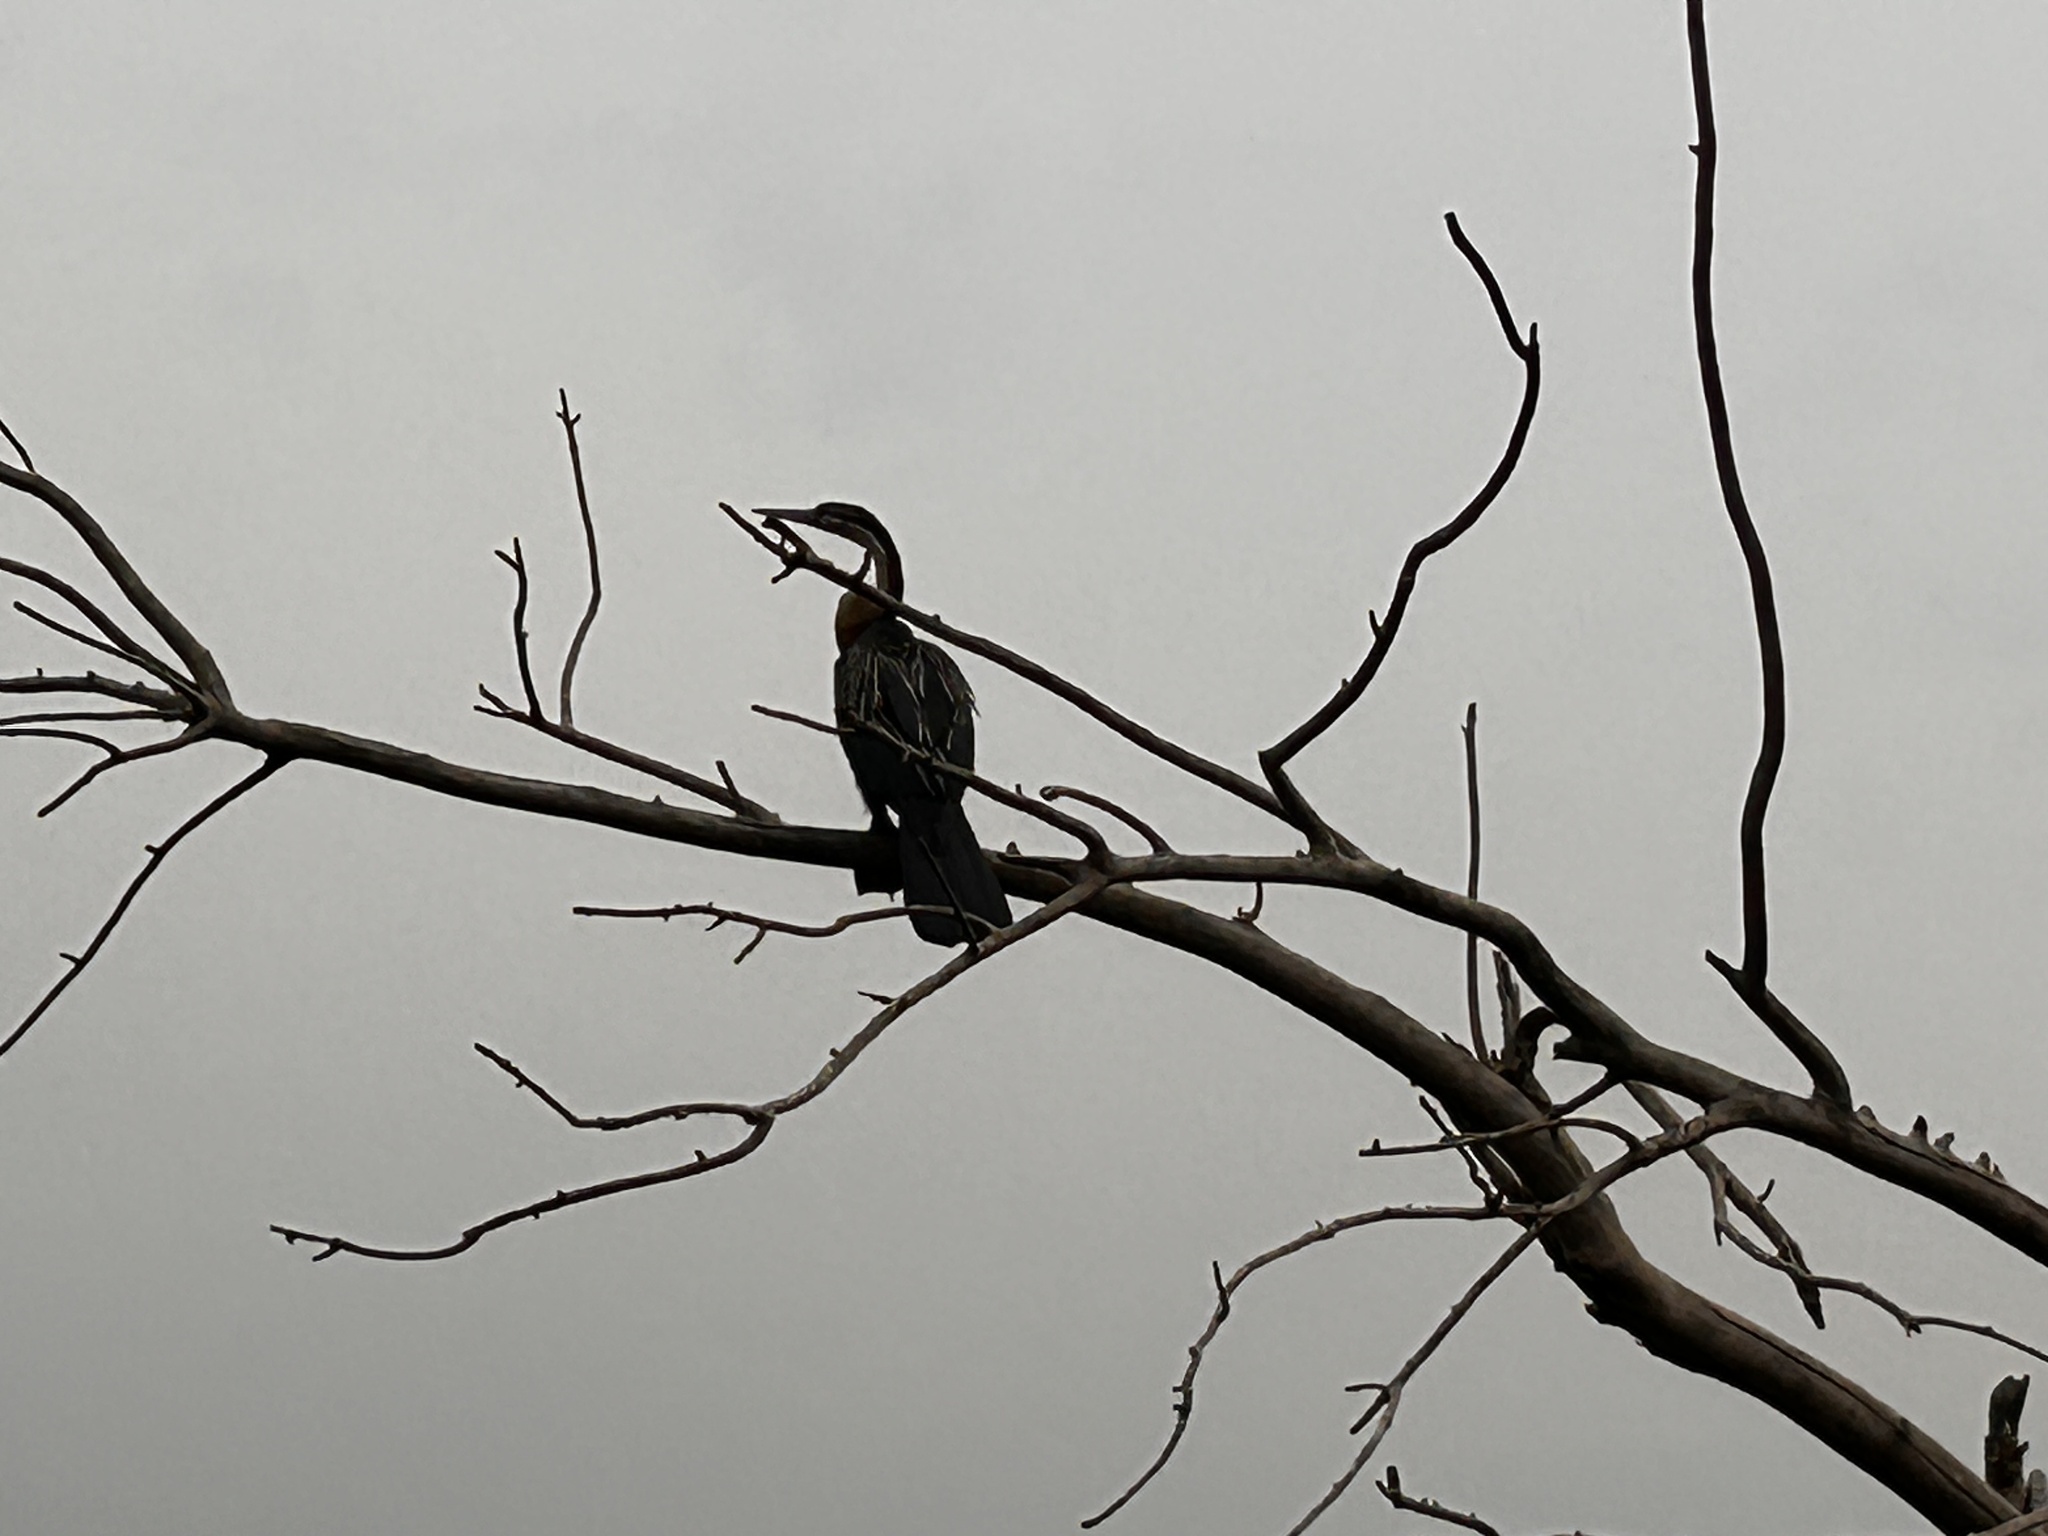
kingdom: Animalia
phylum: Chordata
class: Aves
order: Suliformes
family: Anhingidae
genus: Anhinga
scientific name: Anhinga rufa
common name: African darter
